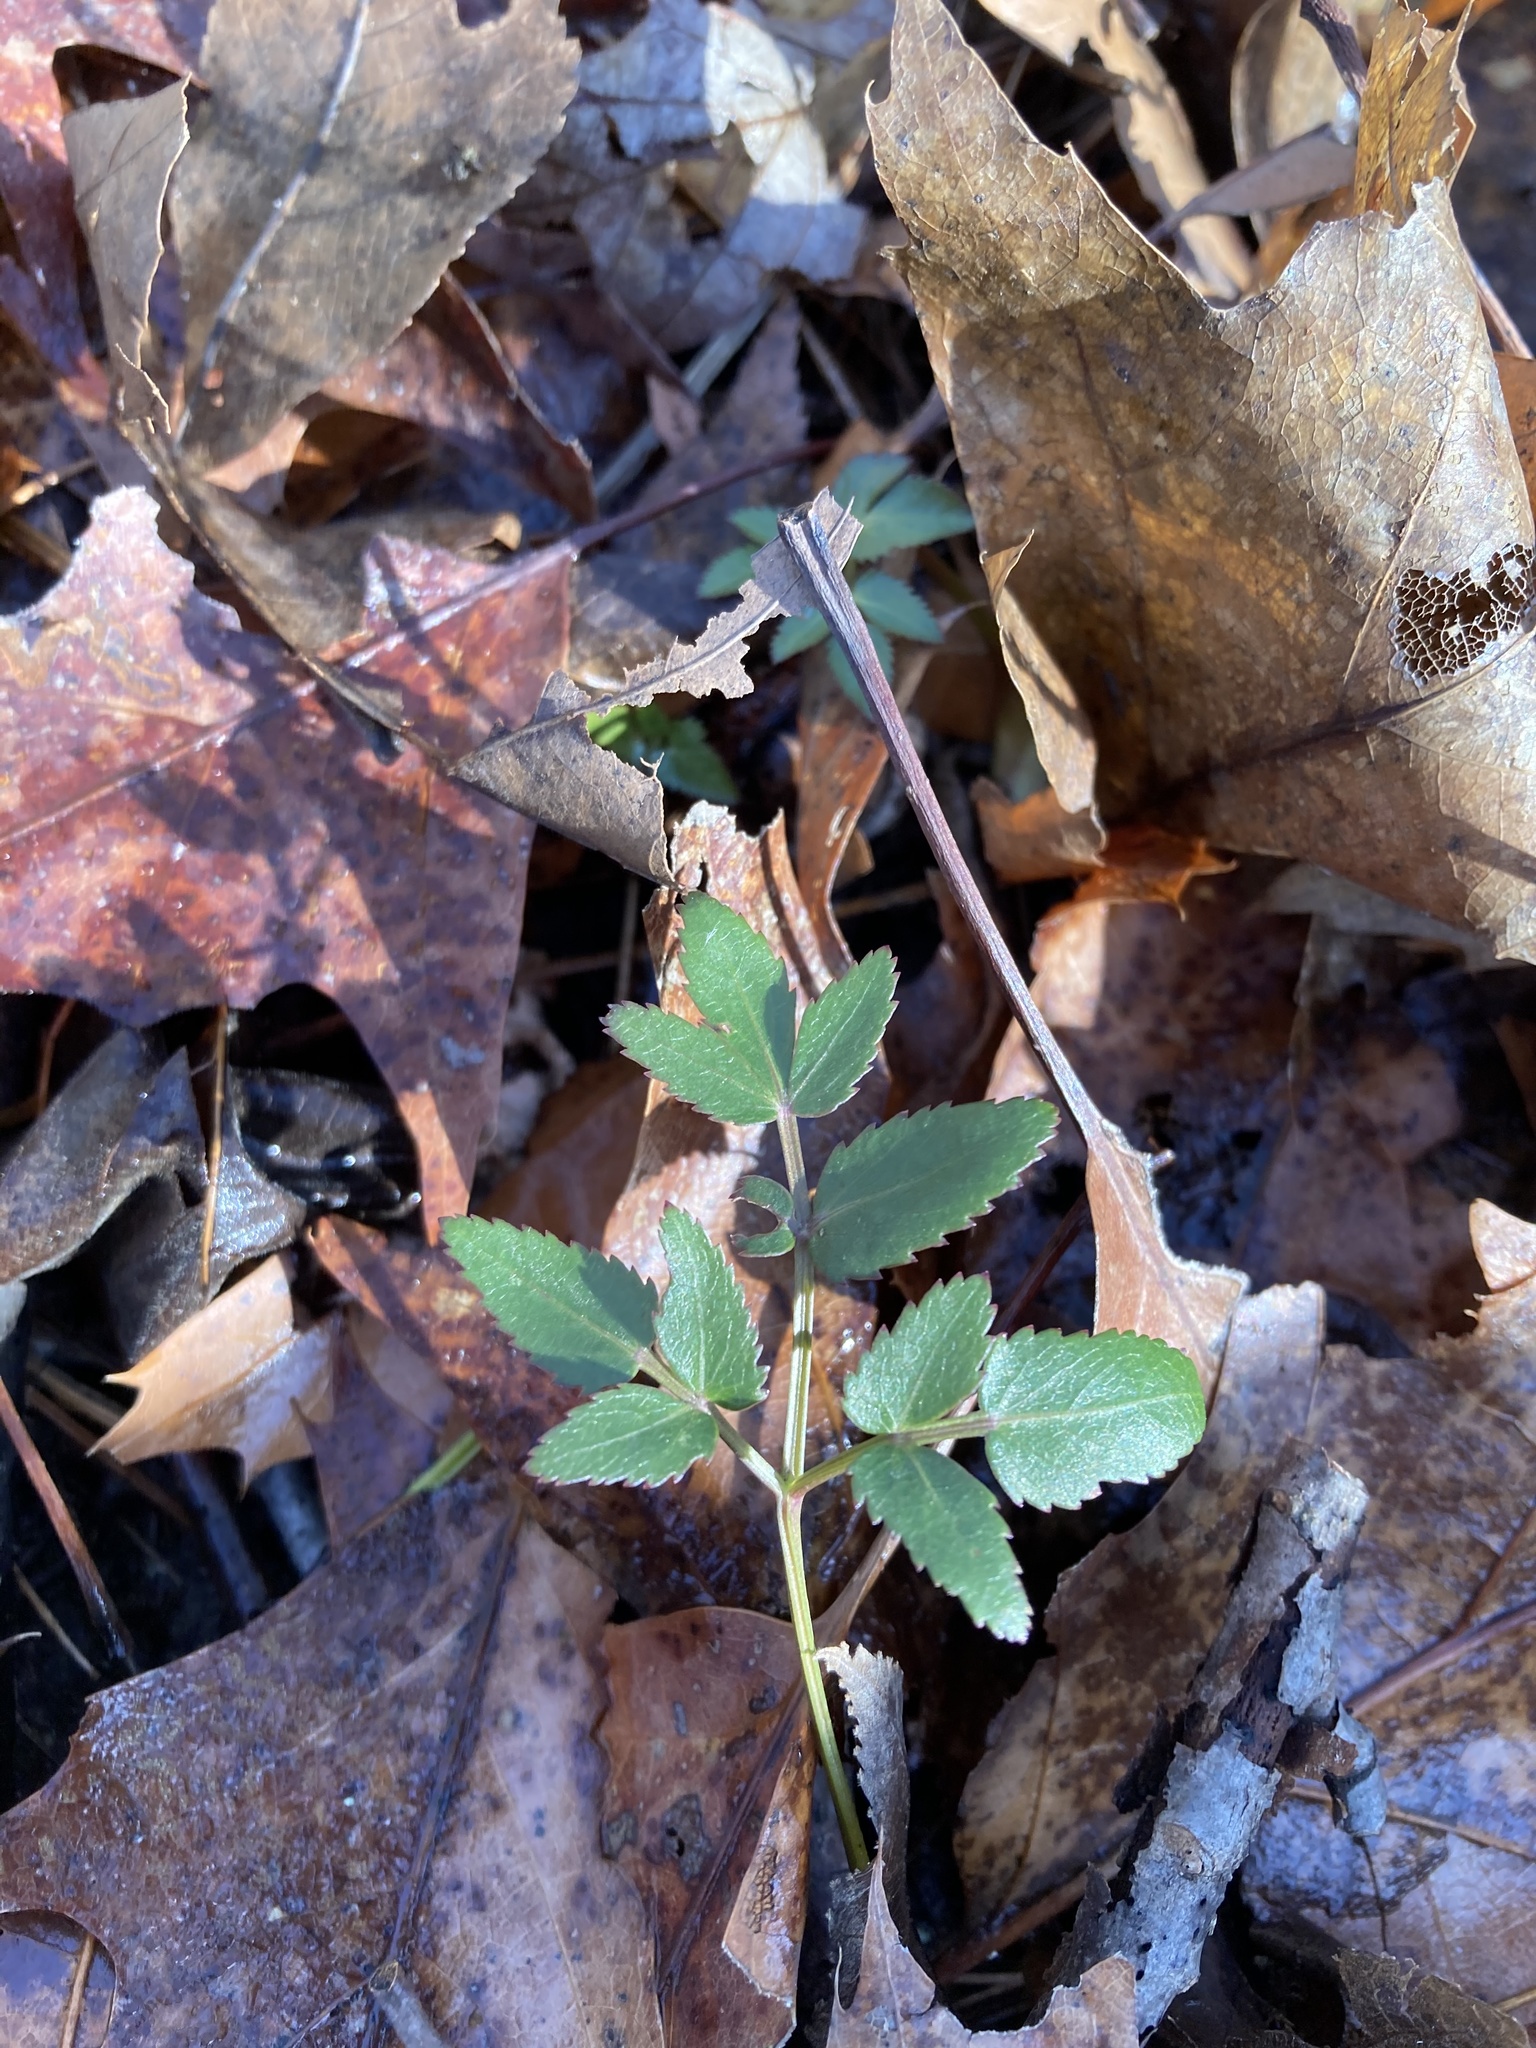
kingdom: Plantae
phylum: Tracheophyta
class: Magnoliopsida
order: Apiales
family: Apiaceae
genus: Zizia
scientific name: Zizia aurea
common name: Golden alexanders
